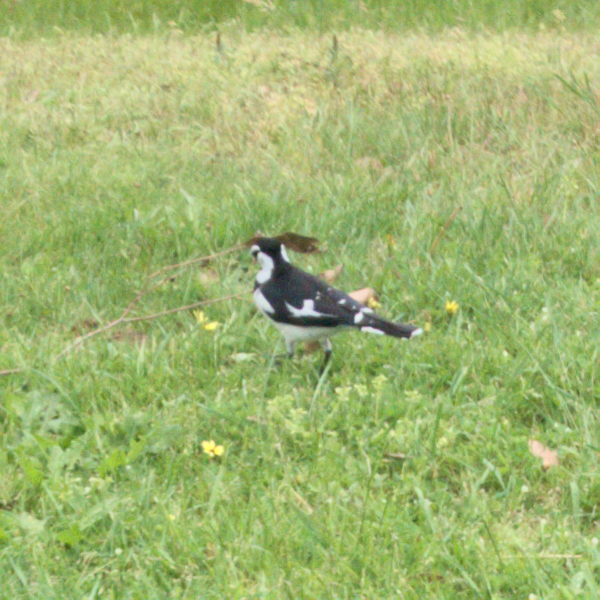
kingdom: Animalia
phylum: Chordata
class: Aves
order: Passeriformes
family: Monarchidae
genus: Grallina
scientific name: Grallina cyanoleuca
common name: Magpie-lark
